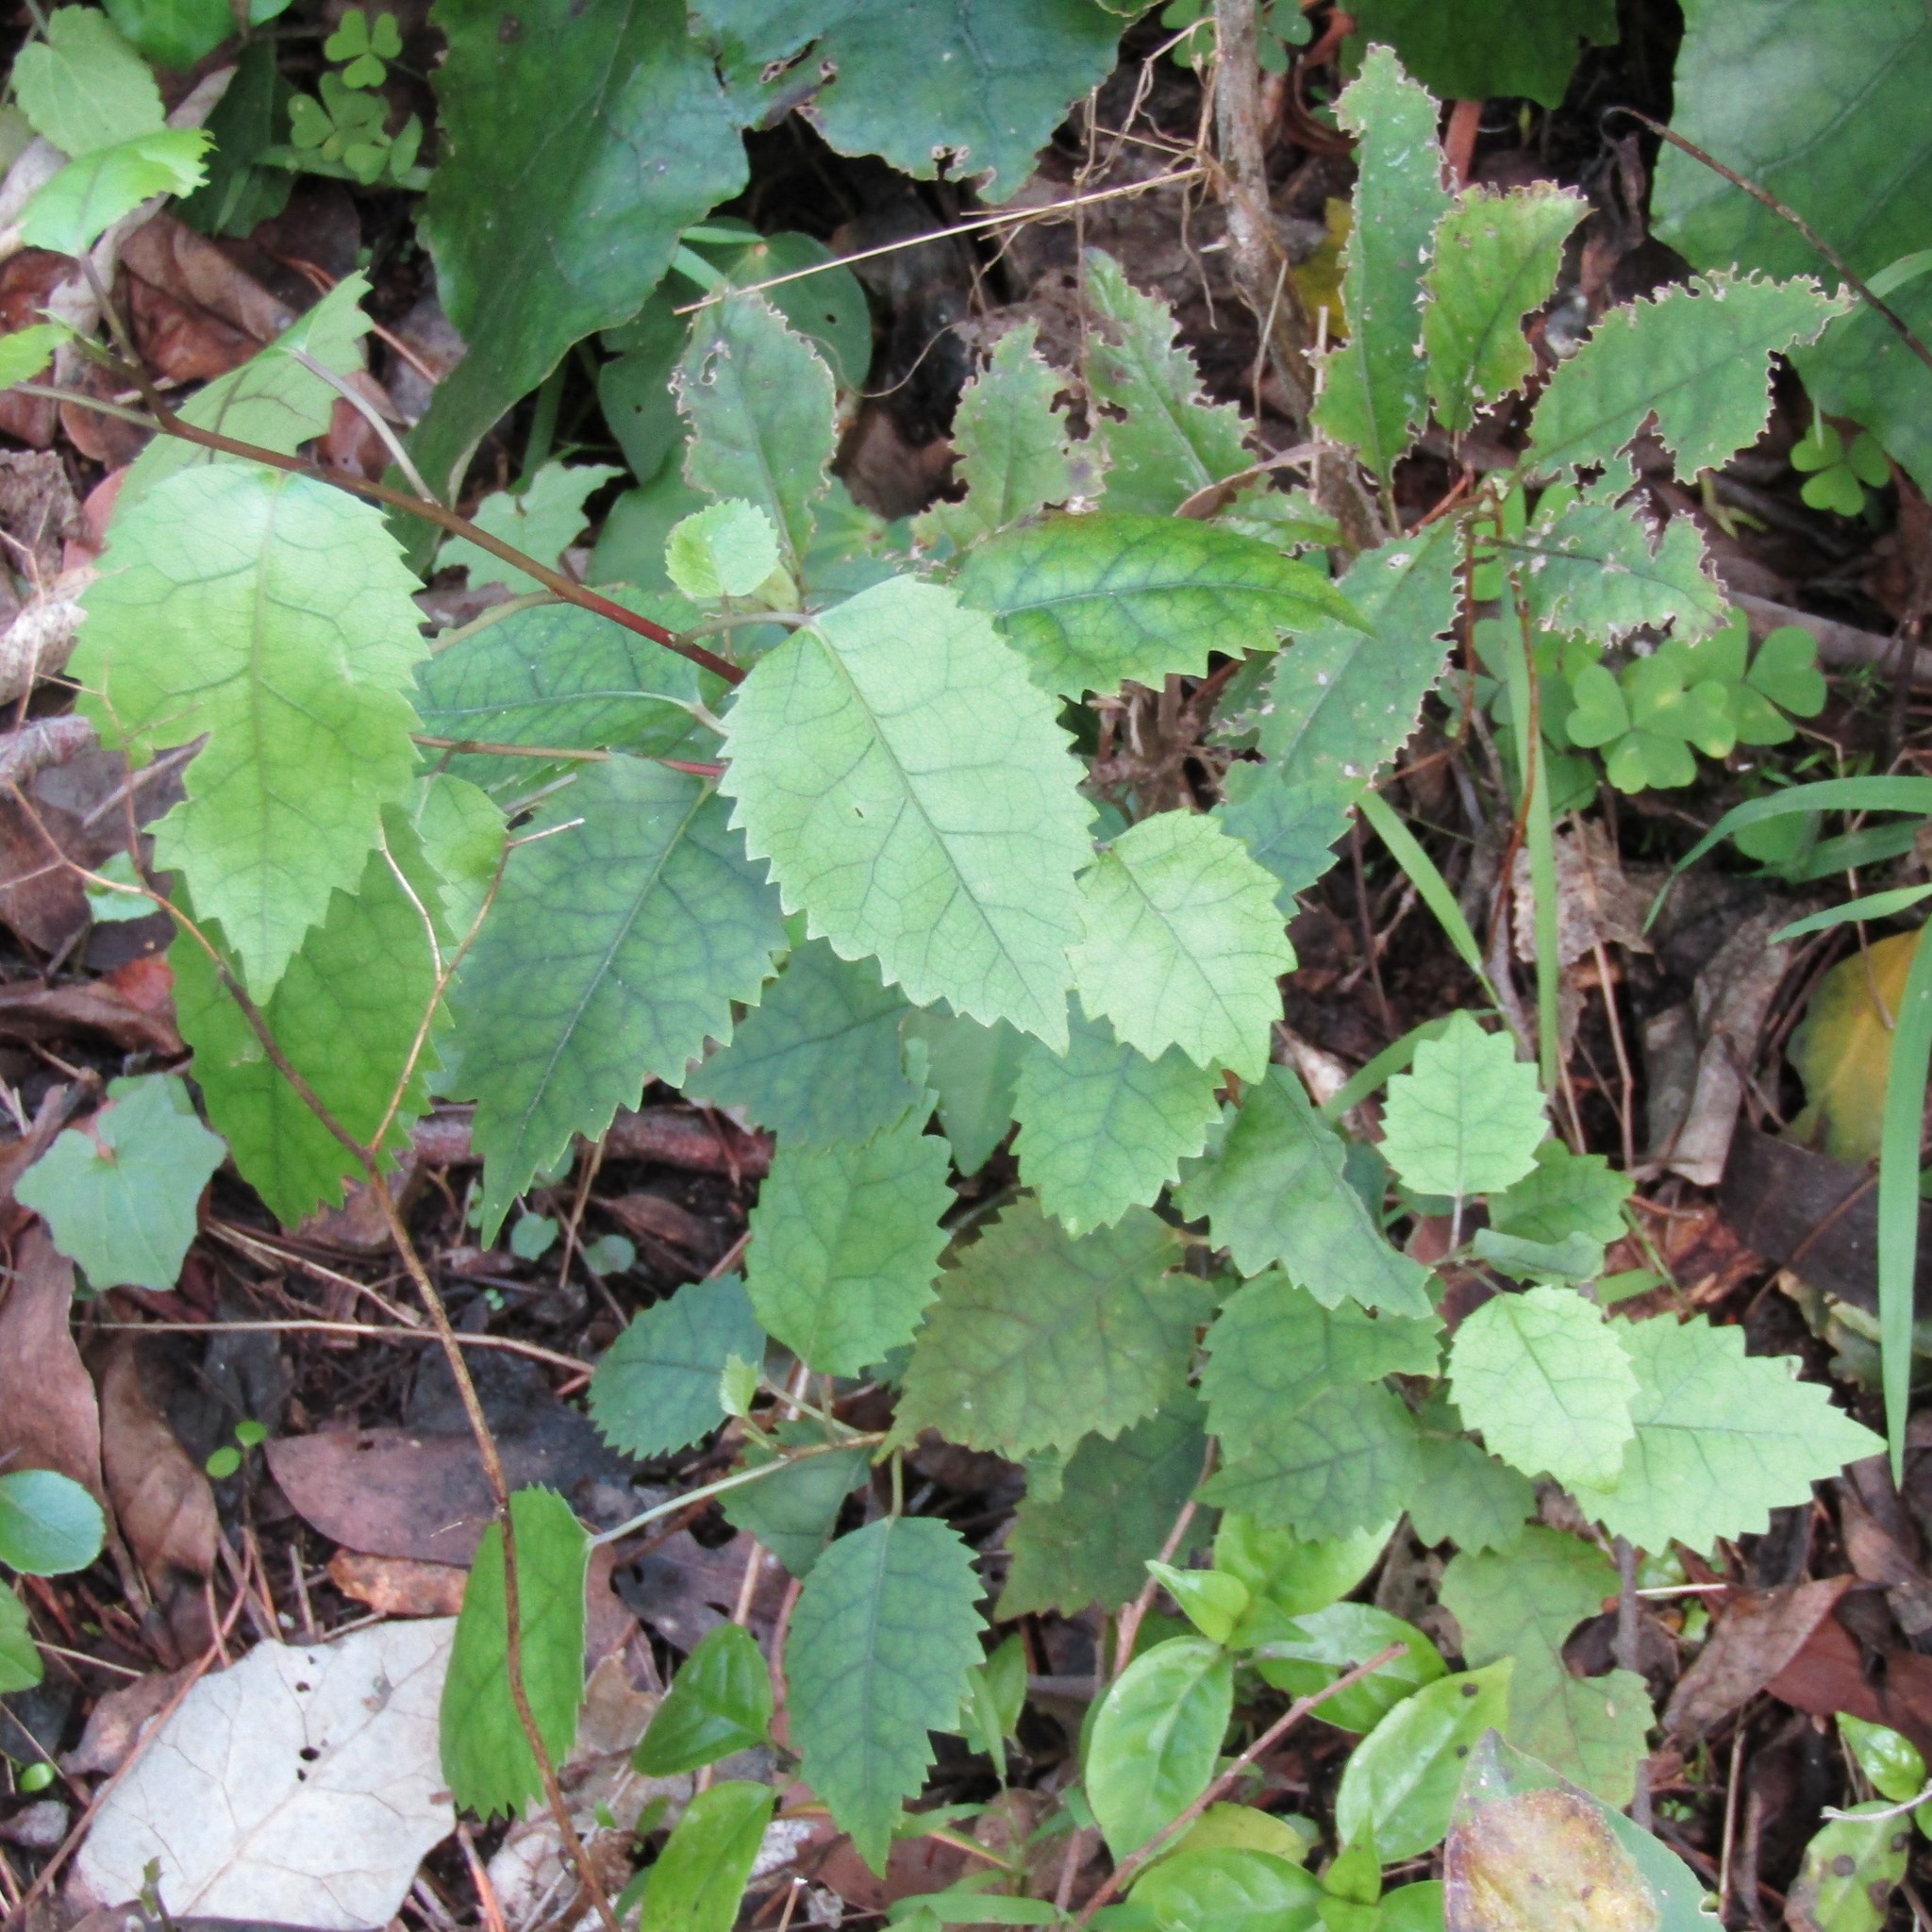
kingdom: Plantae
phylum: Tracheophyta
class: Magnoliopsida
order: Malvales
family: Malvaceae
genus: Hoheria
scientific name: Hoheria populnea
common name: Lacebark
